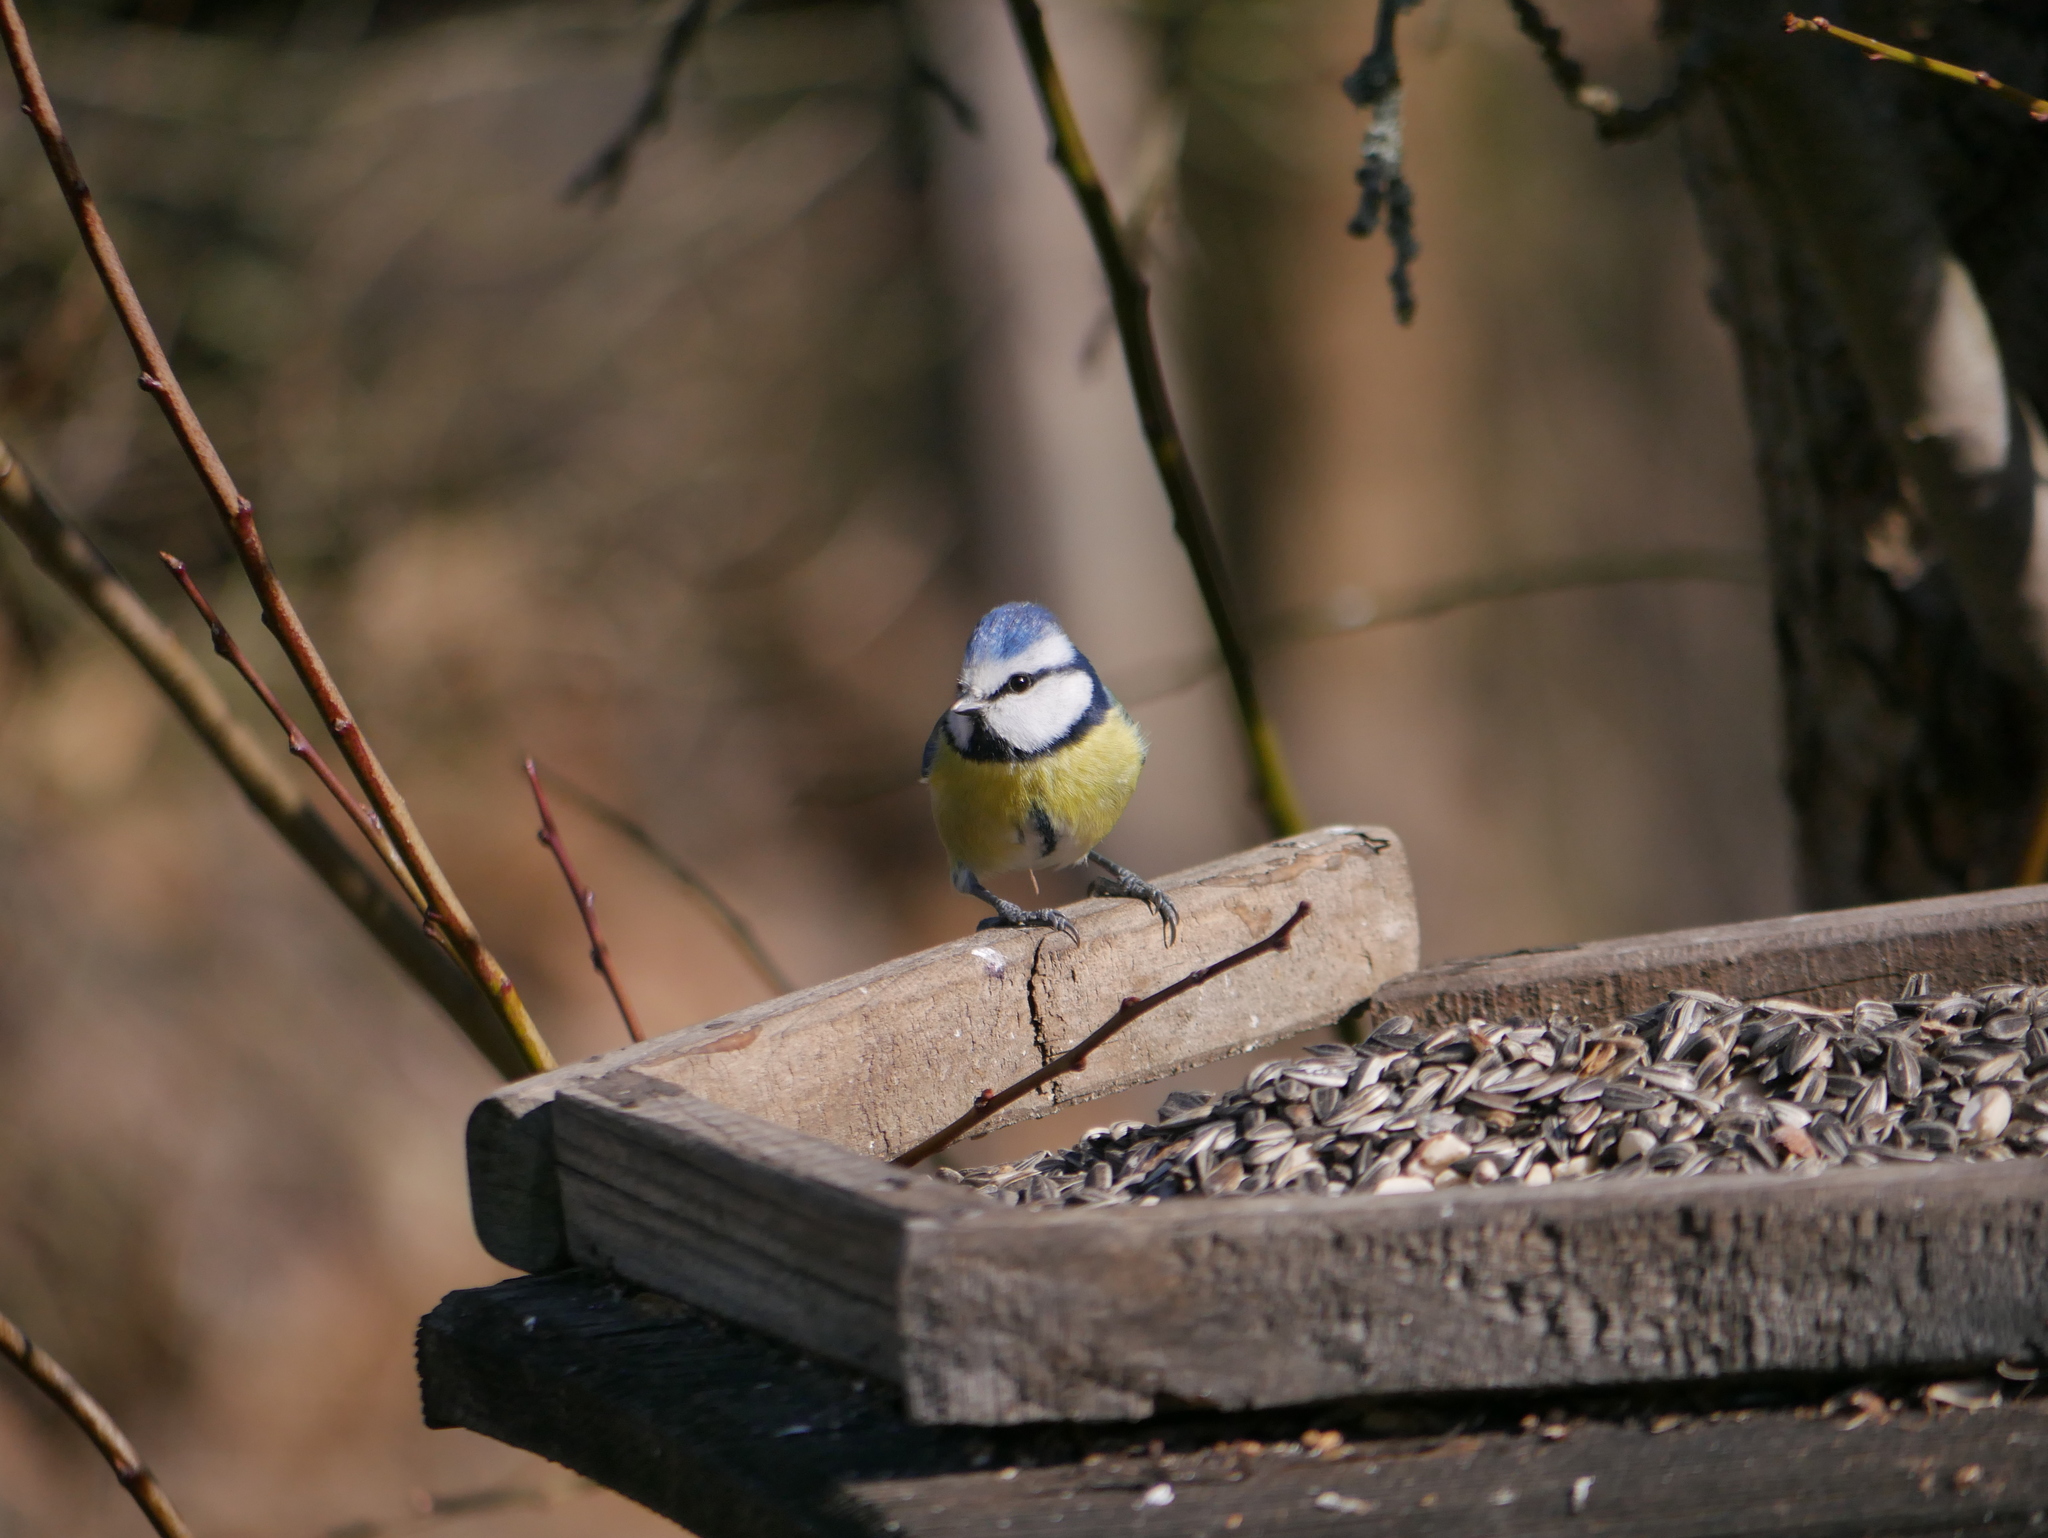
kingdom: Animalia
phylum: Chordata
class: Aves
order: Passeriformes
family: Paridae
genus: Cyanistes
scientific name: Cyanistes caeruleus
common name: Eurasian blue tit
